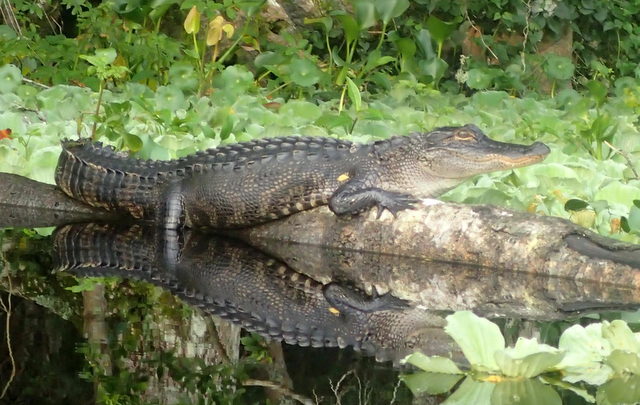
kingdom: Animalia
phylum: Chordata
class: Crocodylia
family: Alligatoridae
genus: Alligator
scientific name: Alligator mississippiensis
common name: American alligator
